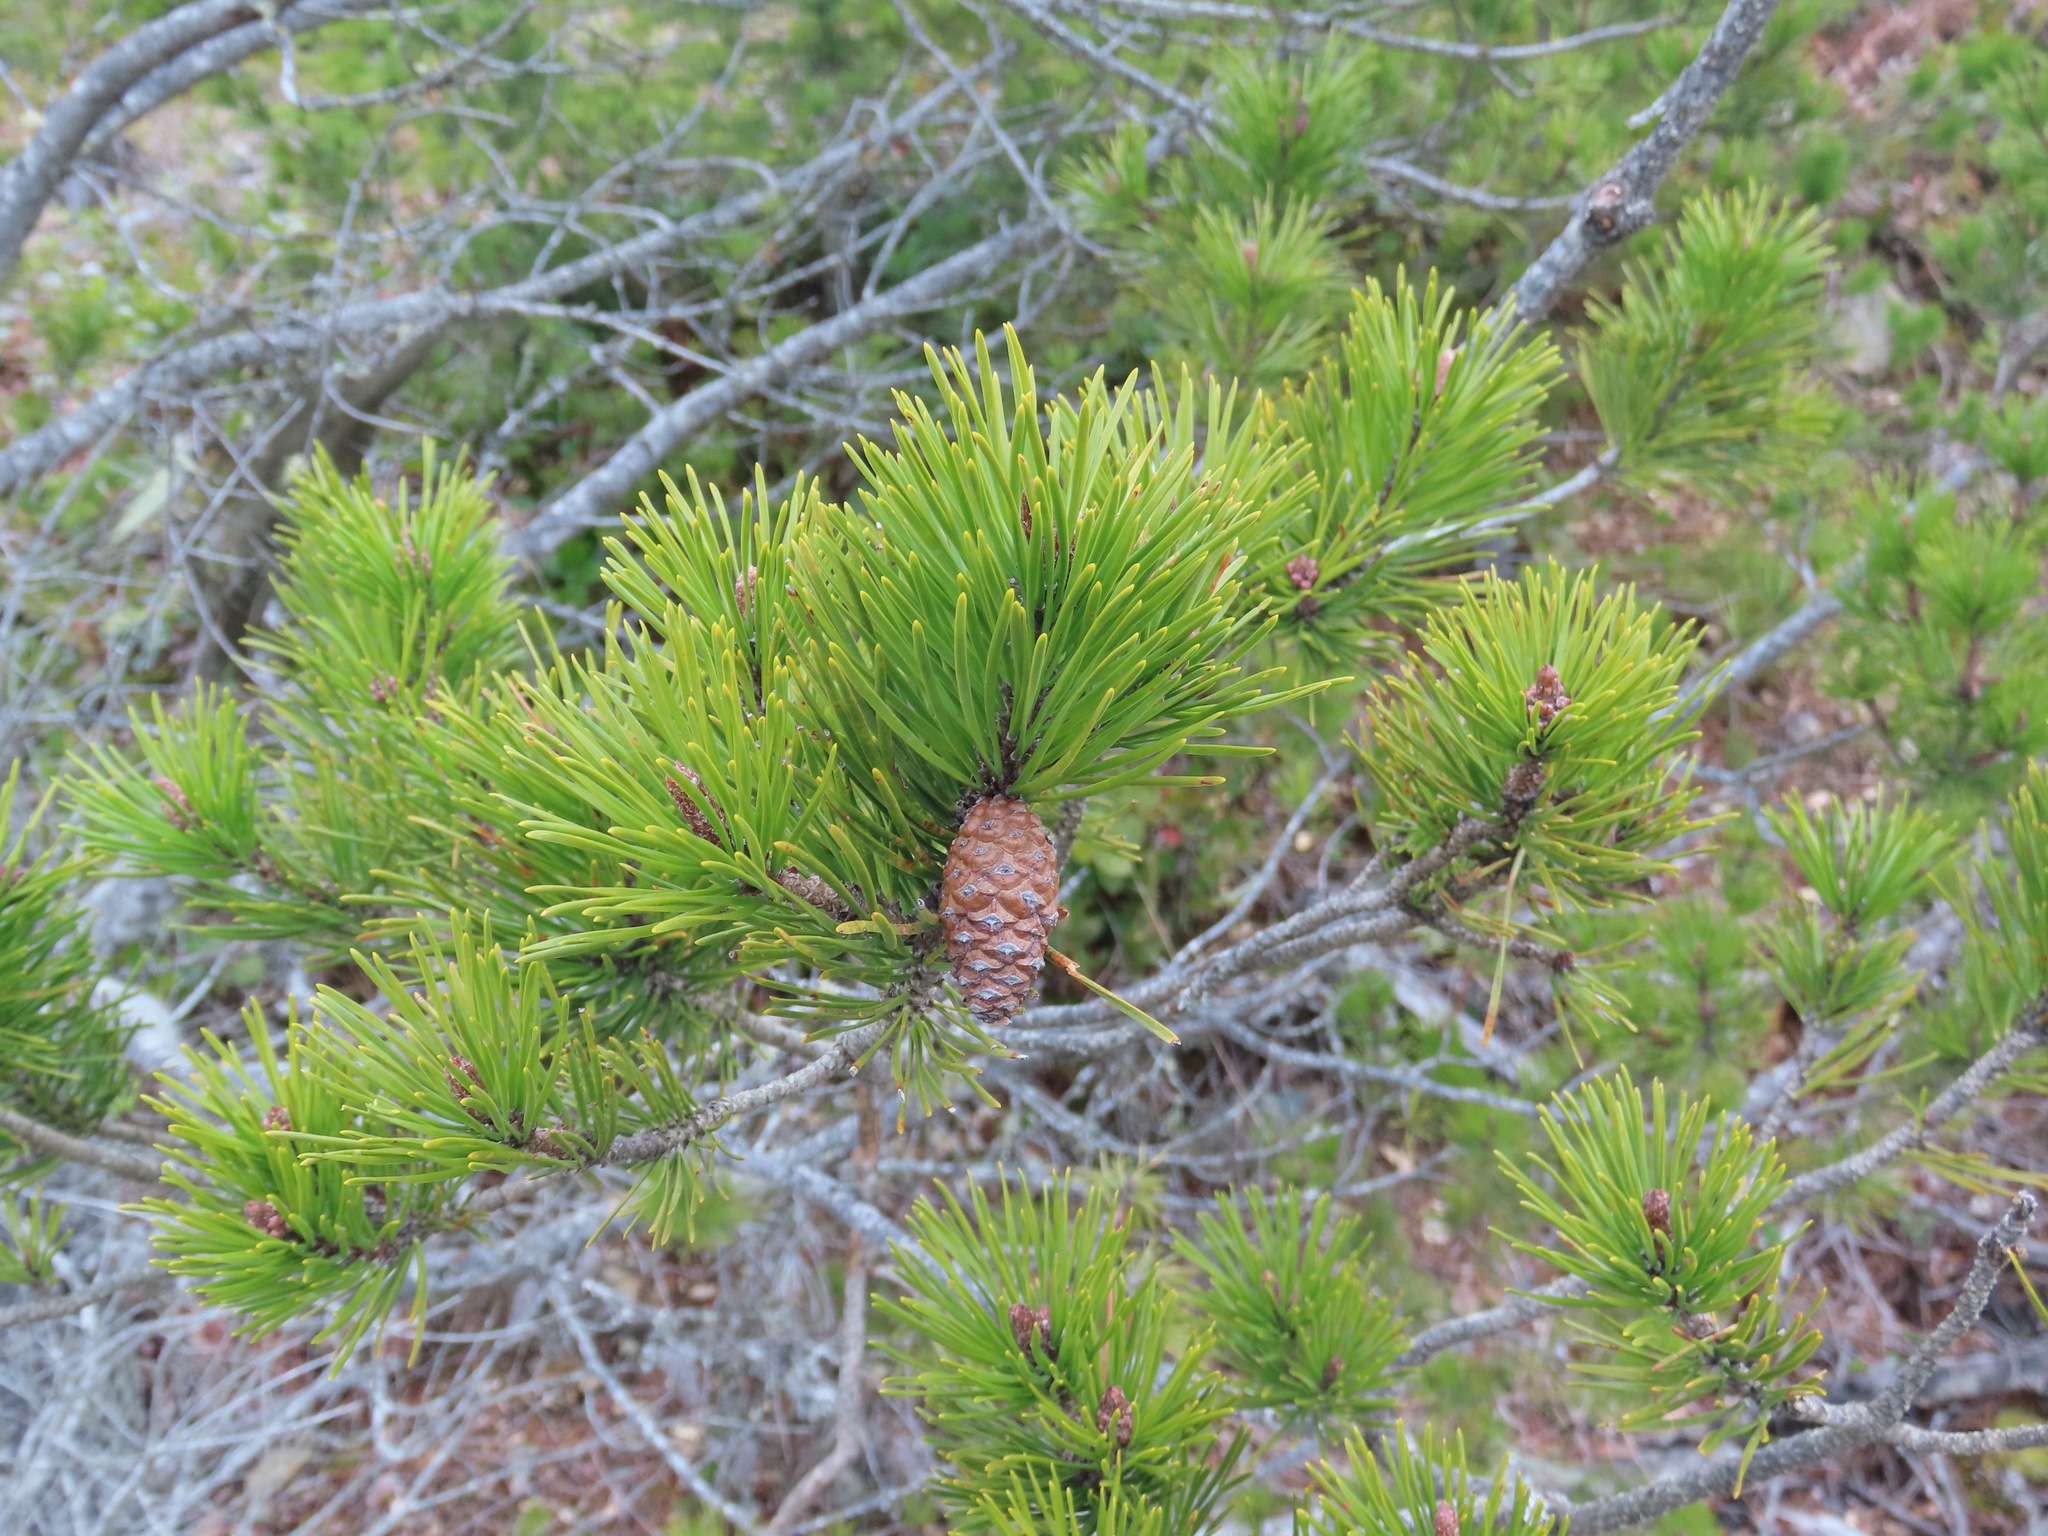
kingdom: Plantae
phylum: Tracheophyta
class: Pinopsida
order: Pinales
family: Pinaceae
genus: Pinus
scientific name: Pinus contorta
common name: Lodgepole pine
